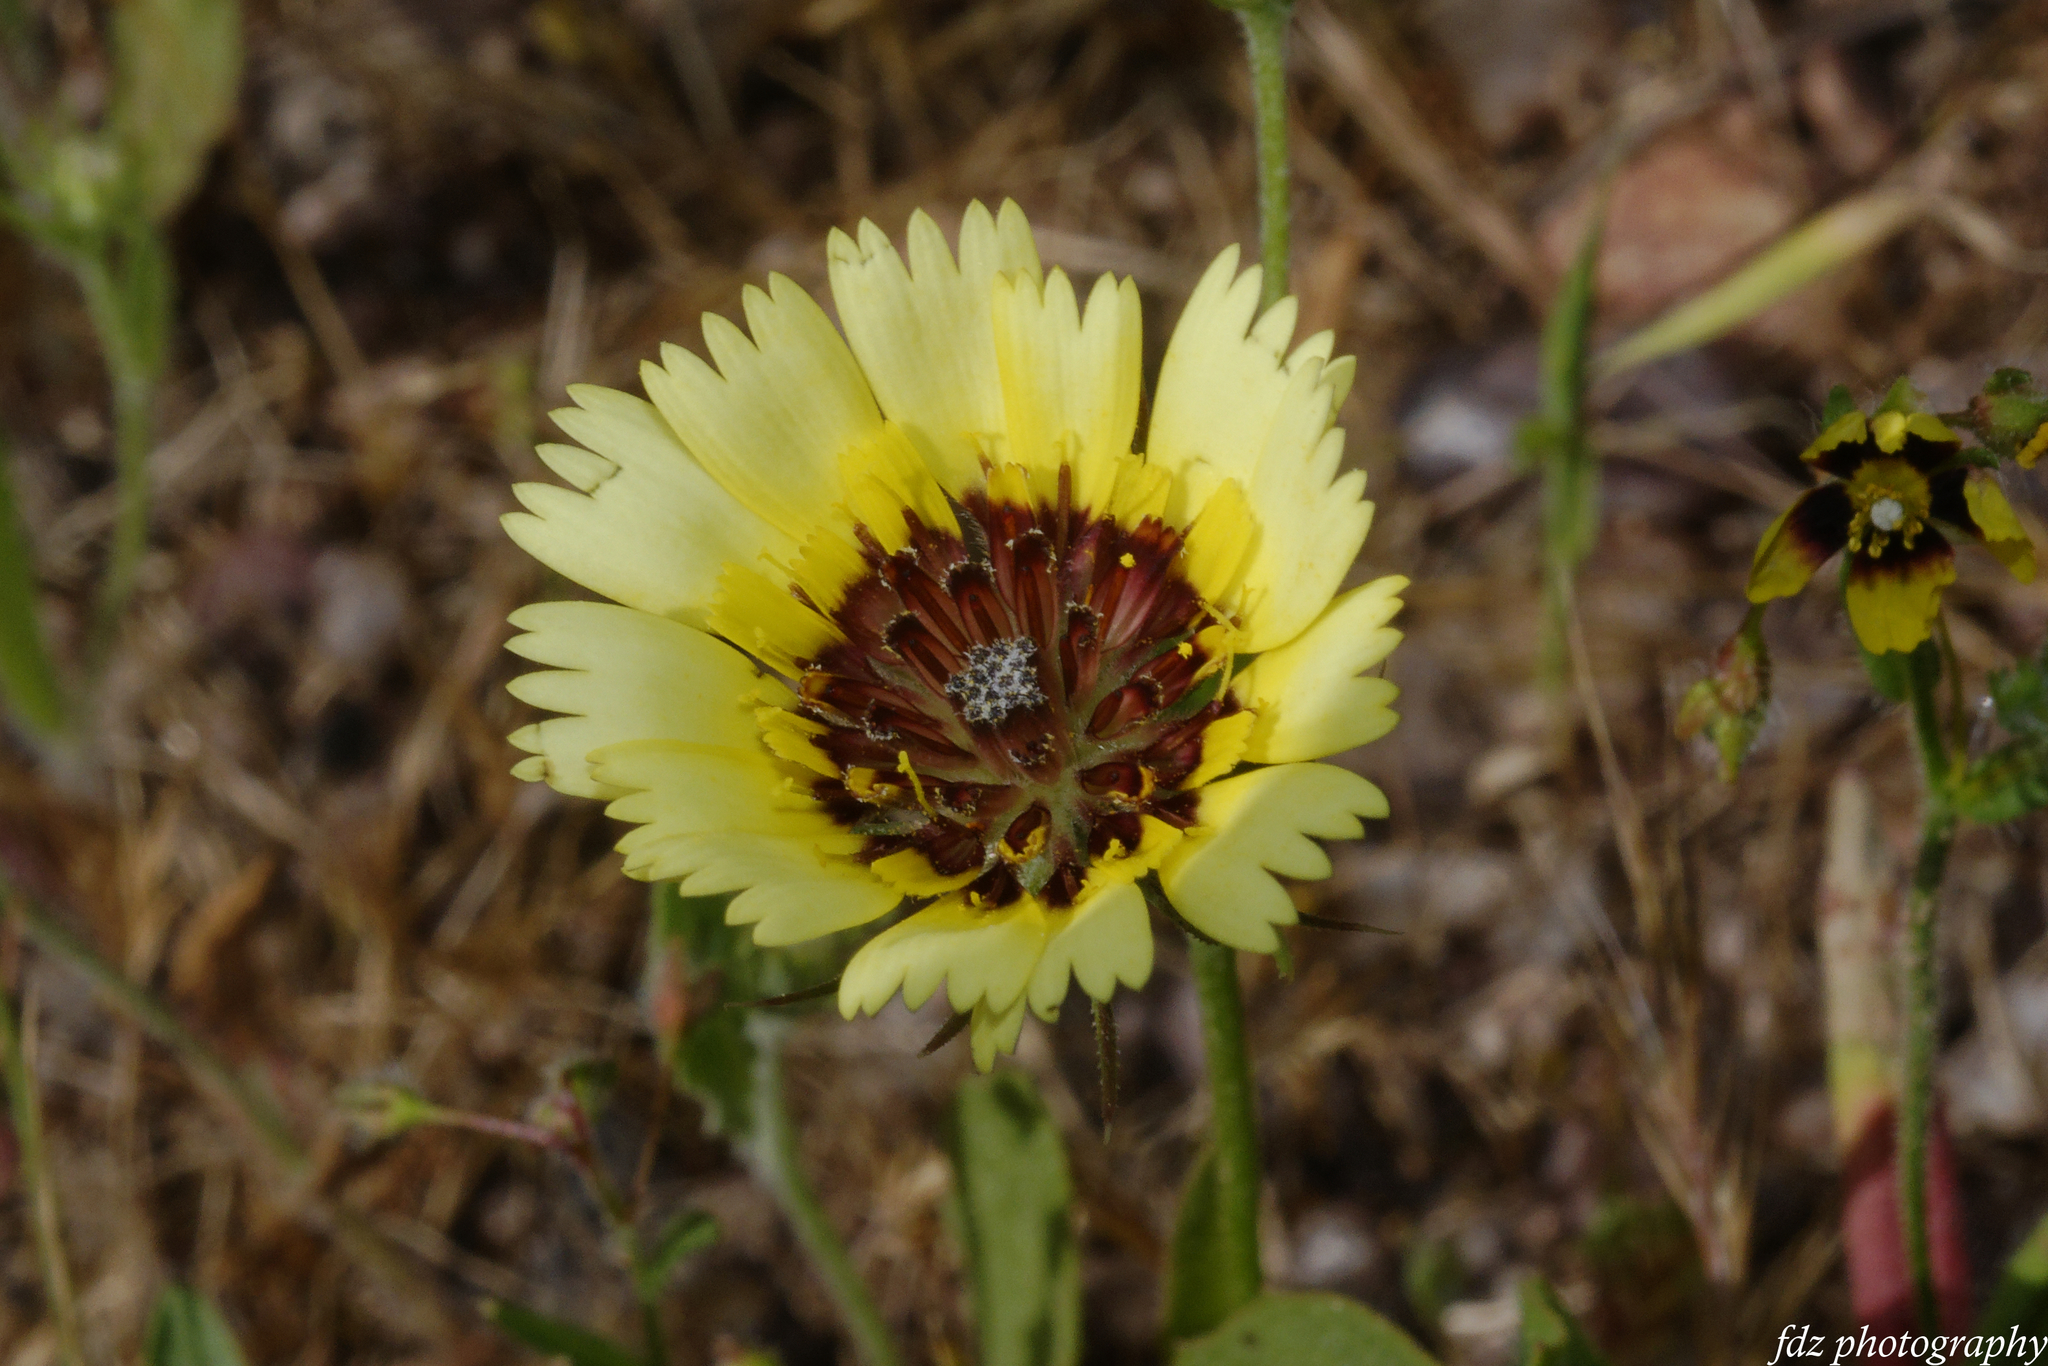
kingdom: Plantae
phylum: Tracheophyta
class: Magnoliopsida
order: Asterales
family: Asteraceae
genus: Tolpis
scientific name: Tolpis barbata
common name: Yellow hawkweed
